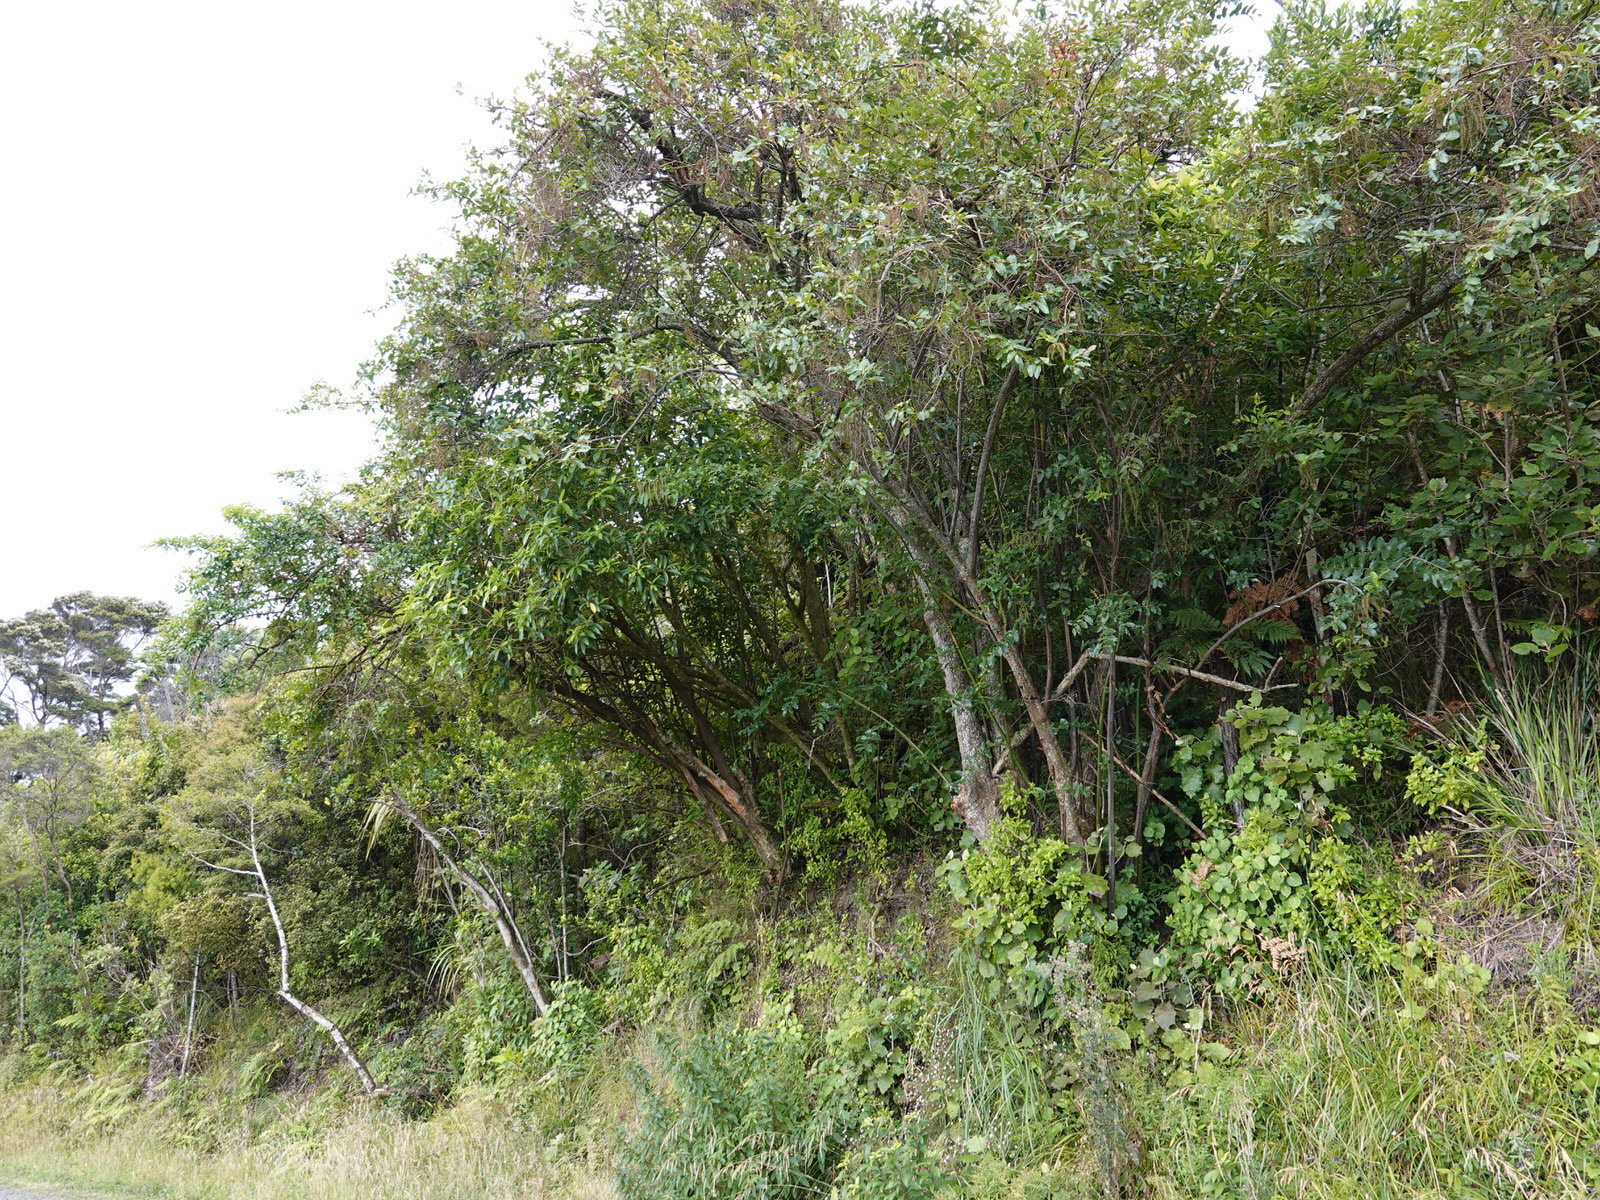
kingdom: Plantae
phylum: Tracheophyta
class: Magnoliopsida
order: Cucurbitales
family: Coriariaceae
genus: Coriaria
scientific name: Coriaria arborea
